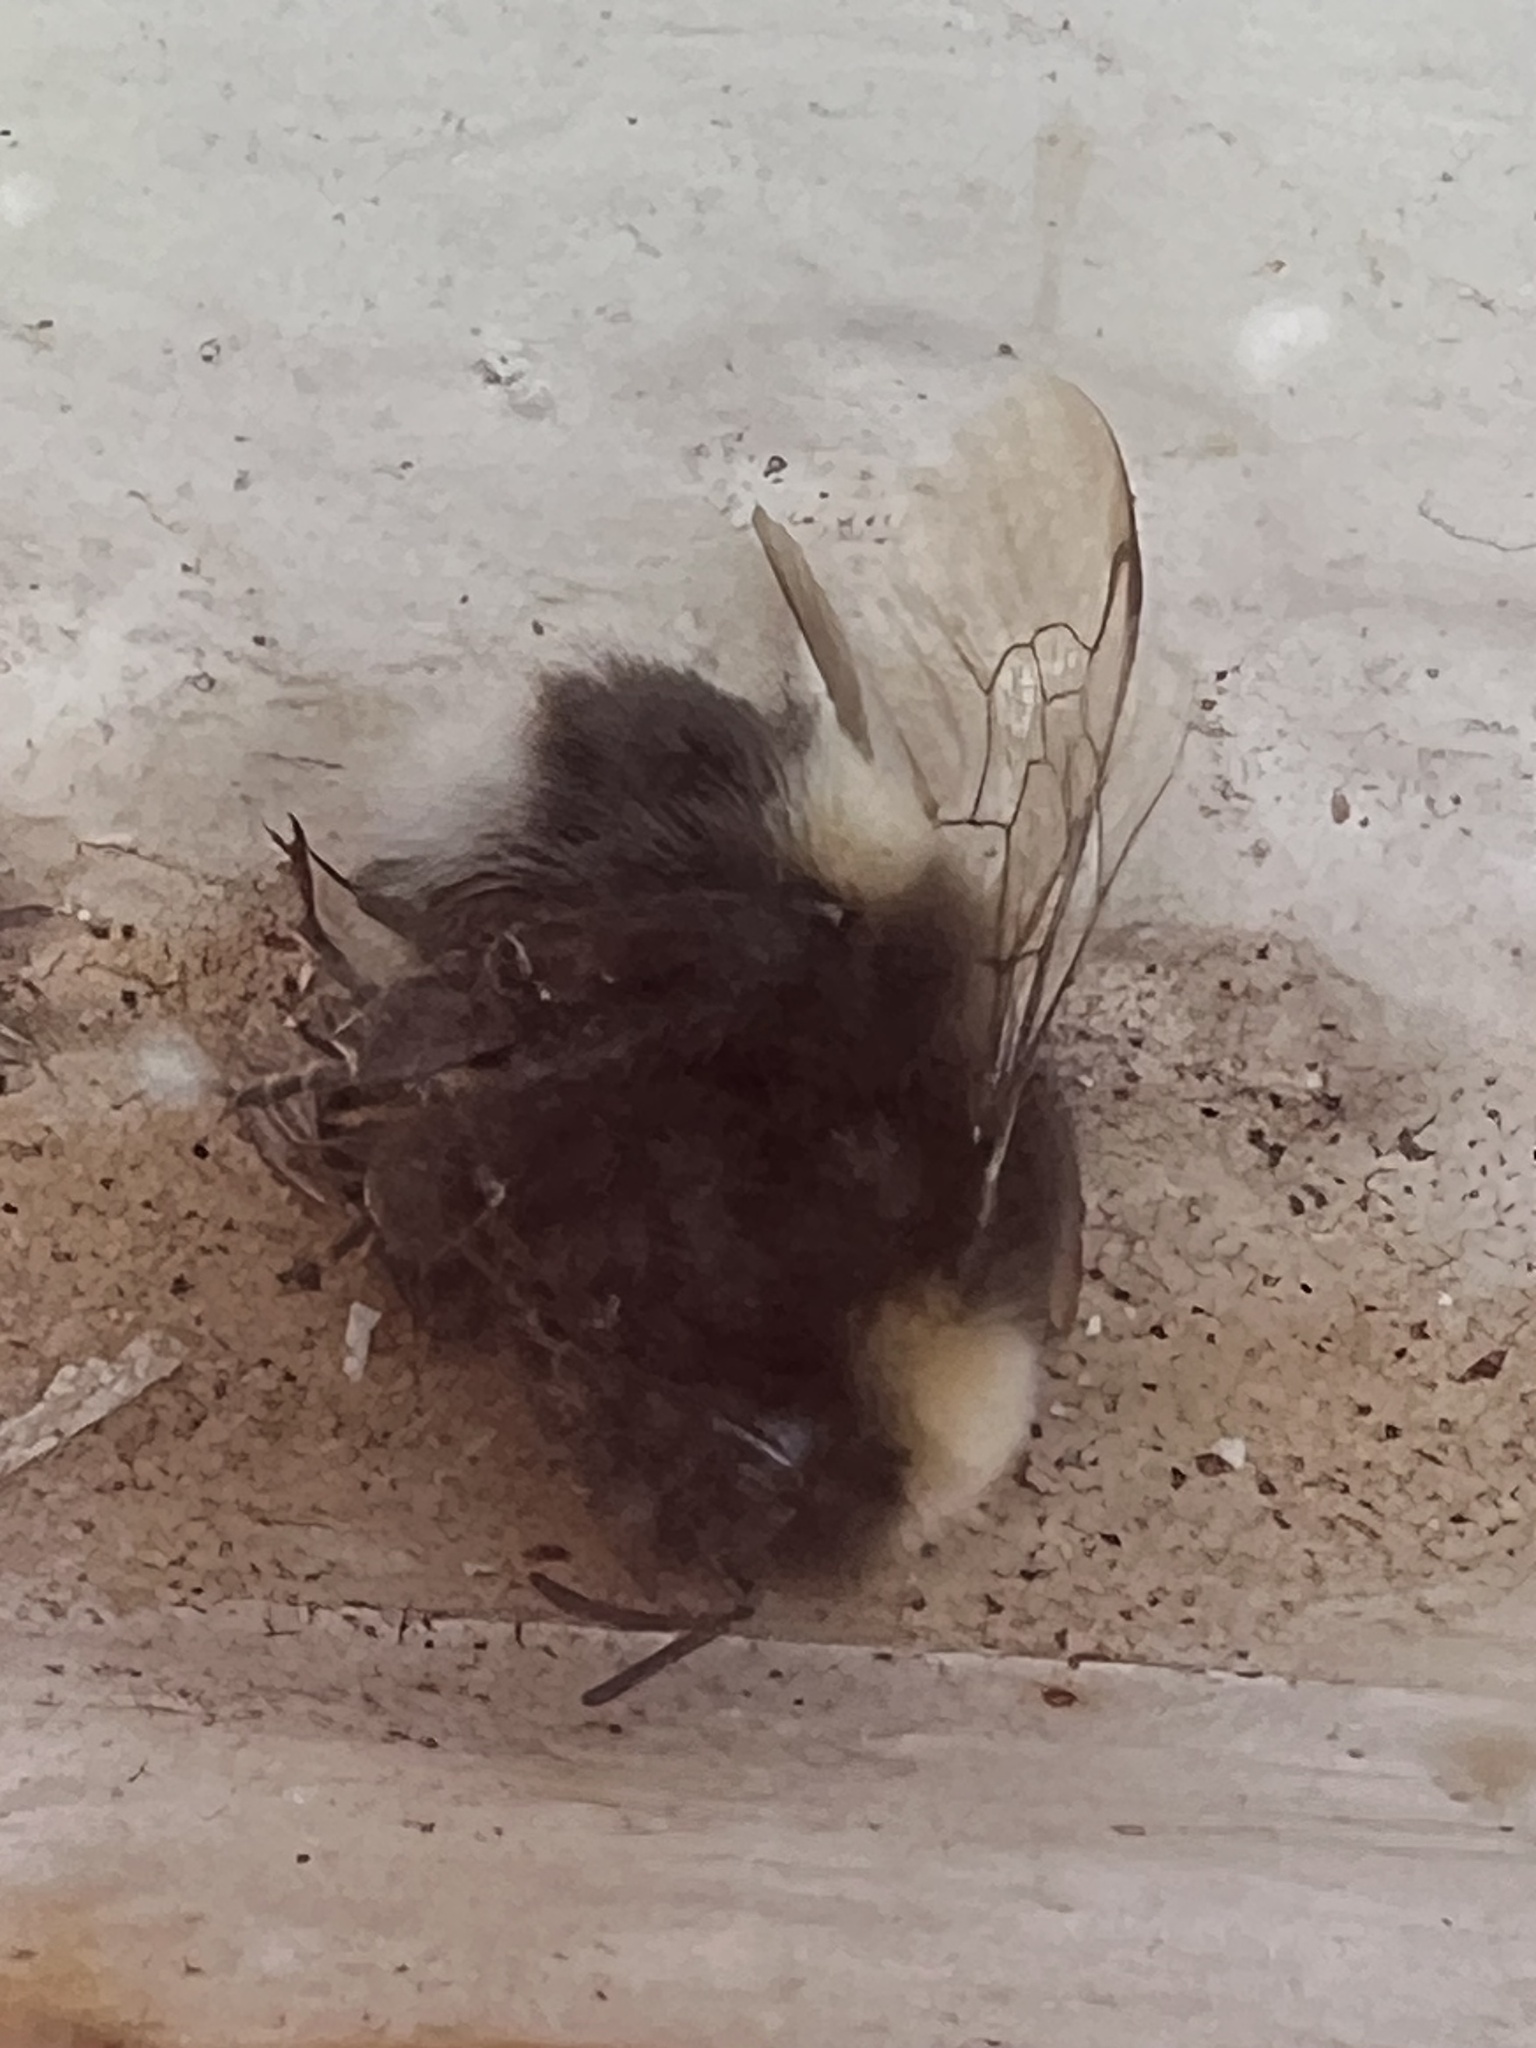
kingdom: Animalia
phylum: Arthropoda
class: Insecta
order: Hymenoptera
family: Apidae
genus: Bombus
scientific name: Bombus lucorum
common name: White-tailed bumblebee
